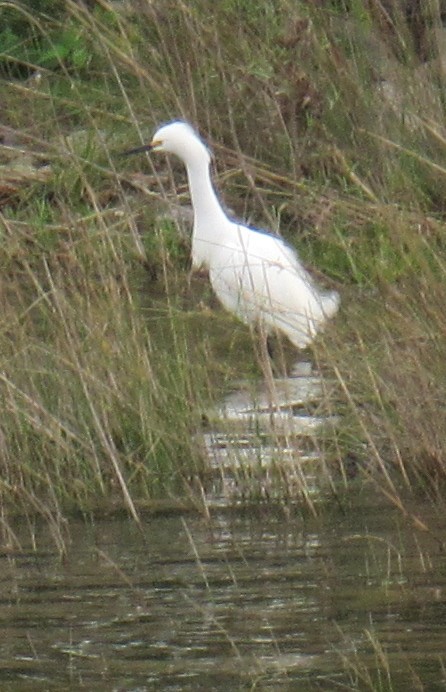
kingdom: Animalia
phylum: Chordata
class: Aves
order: Pelecaniformes
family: Ardeidae
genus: Egretta
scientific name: Egretta thula
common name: Snowy egret
